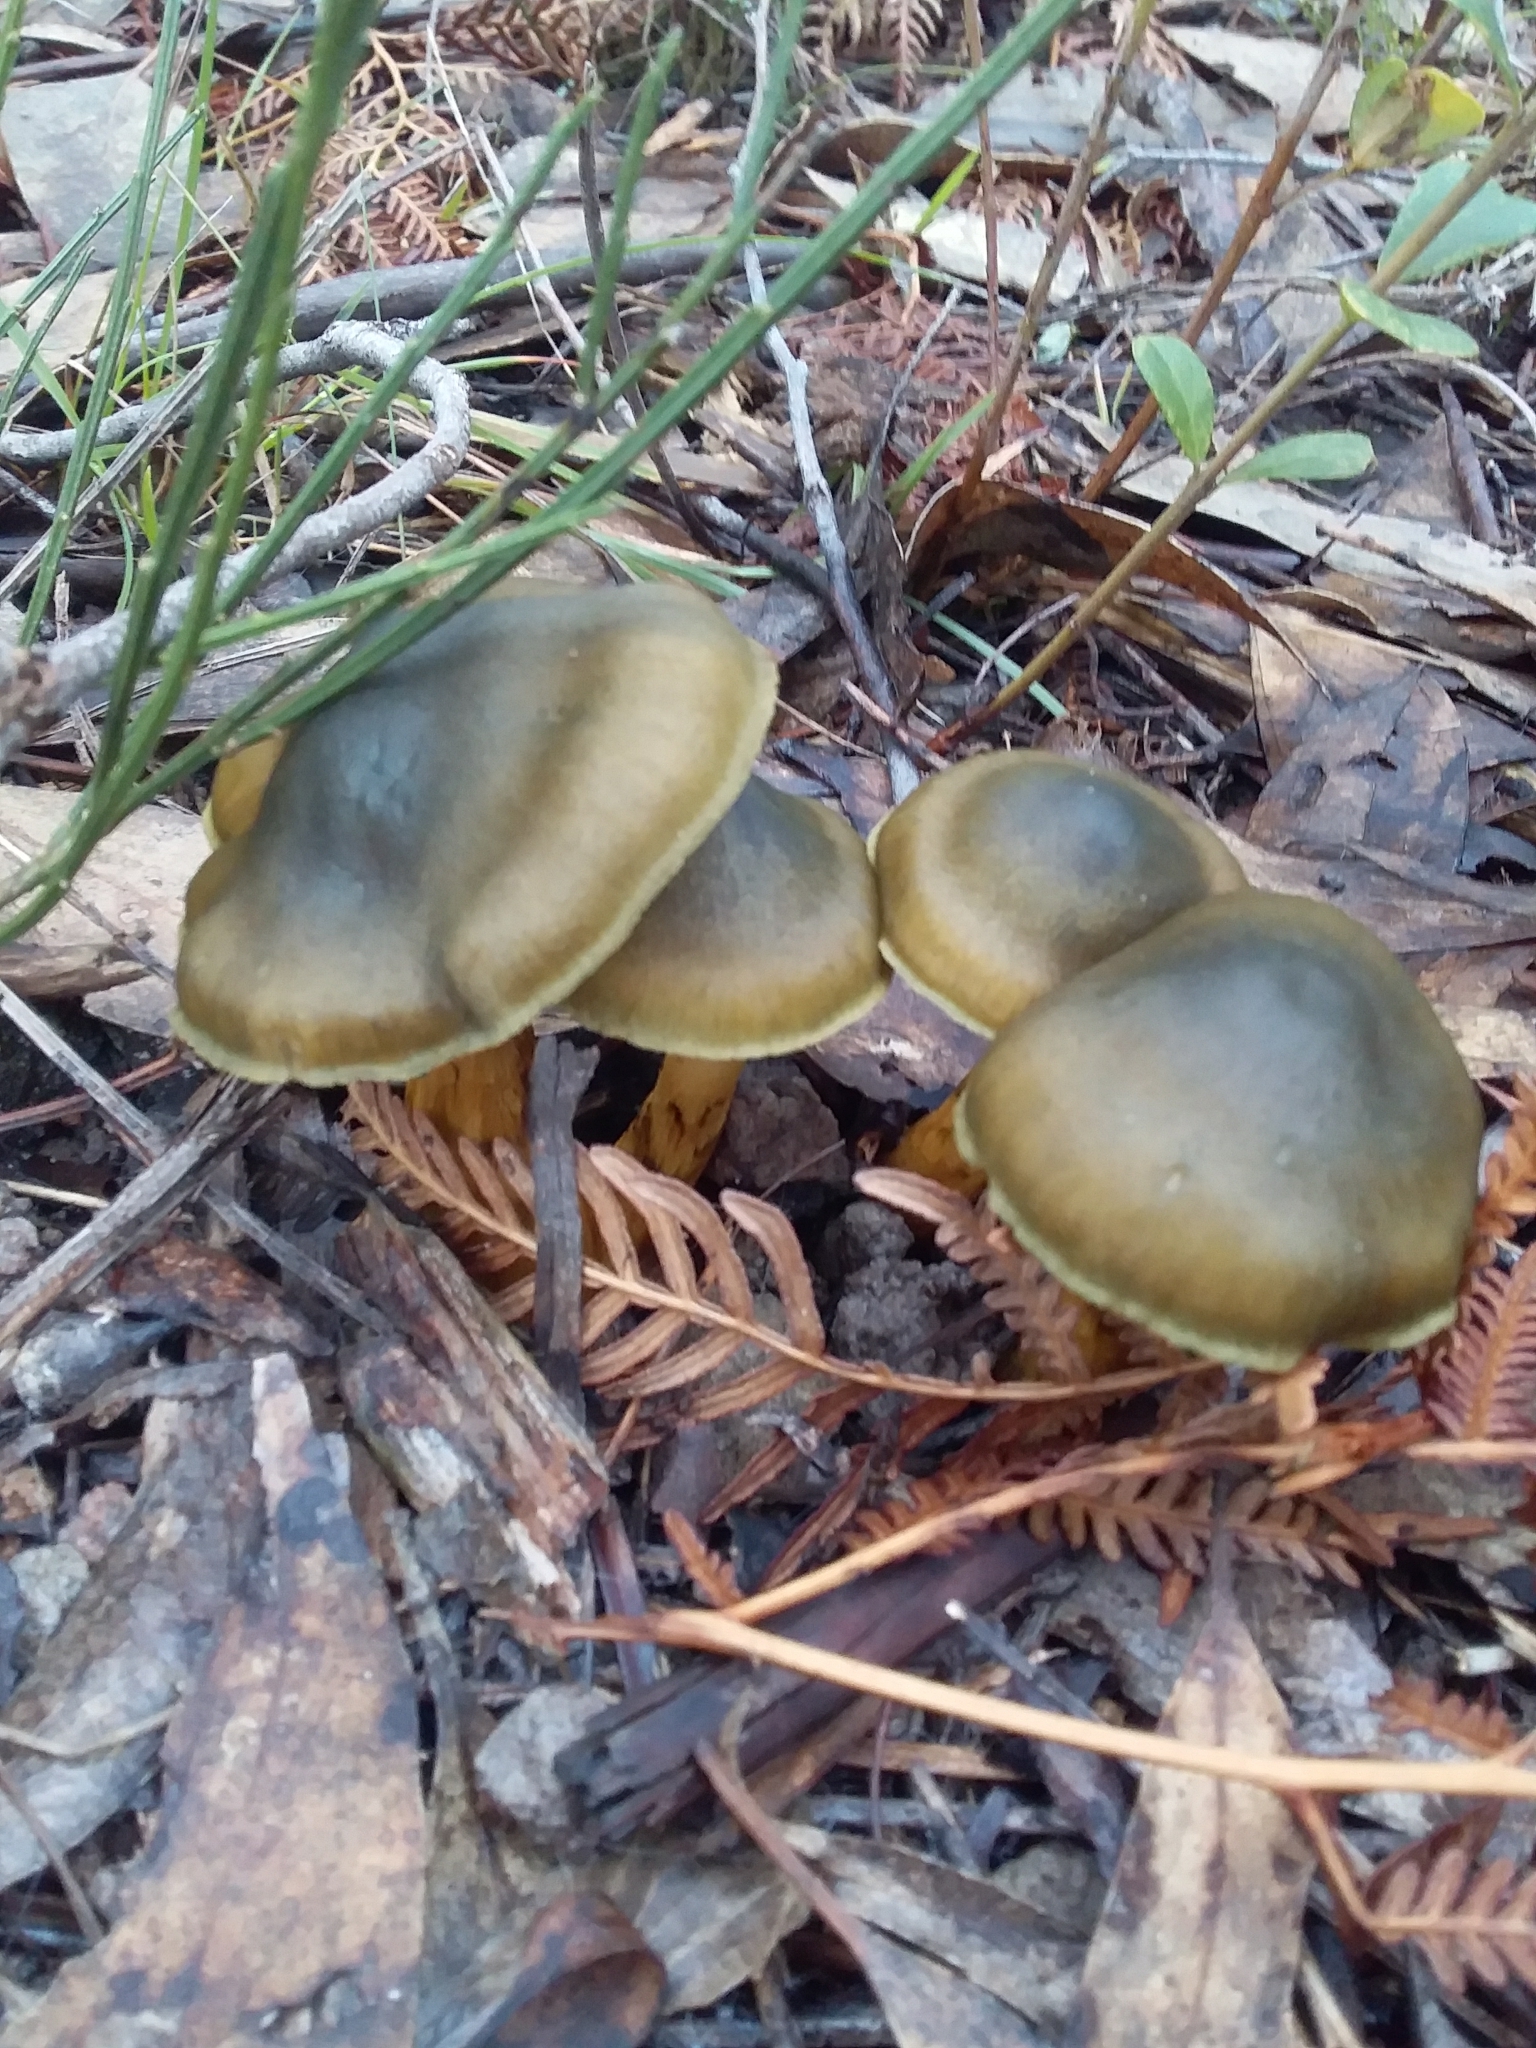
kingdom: Fungi
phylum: Basidiomycota
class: Agaricomycetes
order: Agaricales
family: Cortinariaceae
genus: Cortinarius
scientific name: Cortinarius austrovenetus
